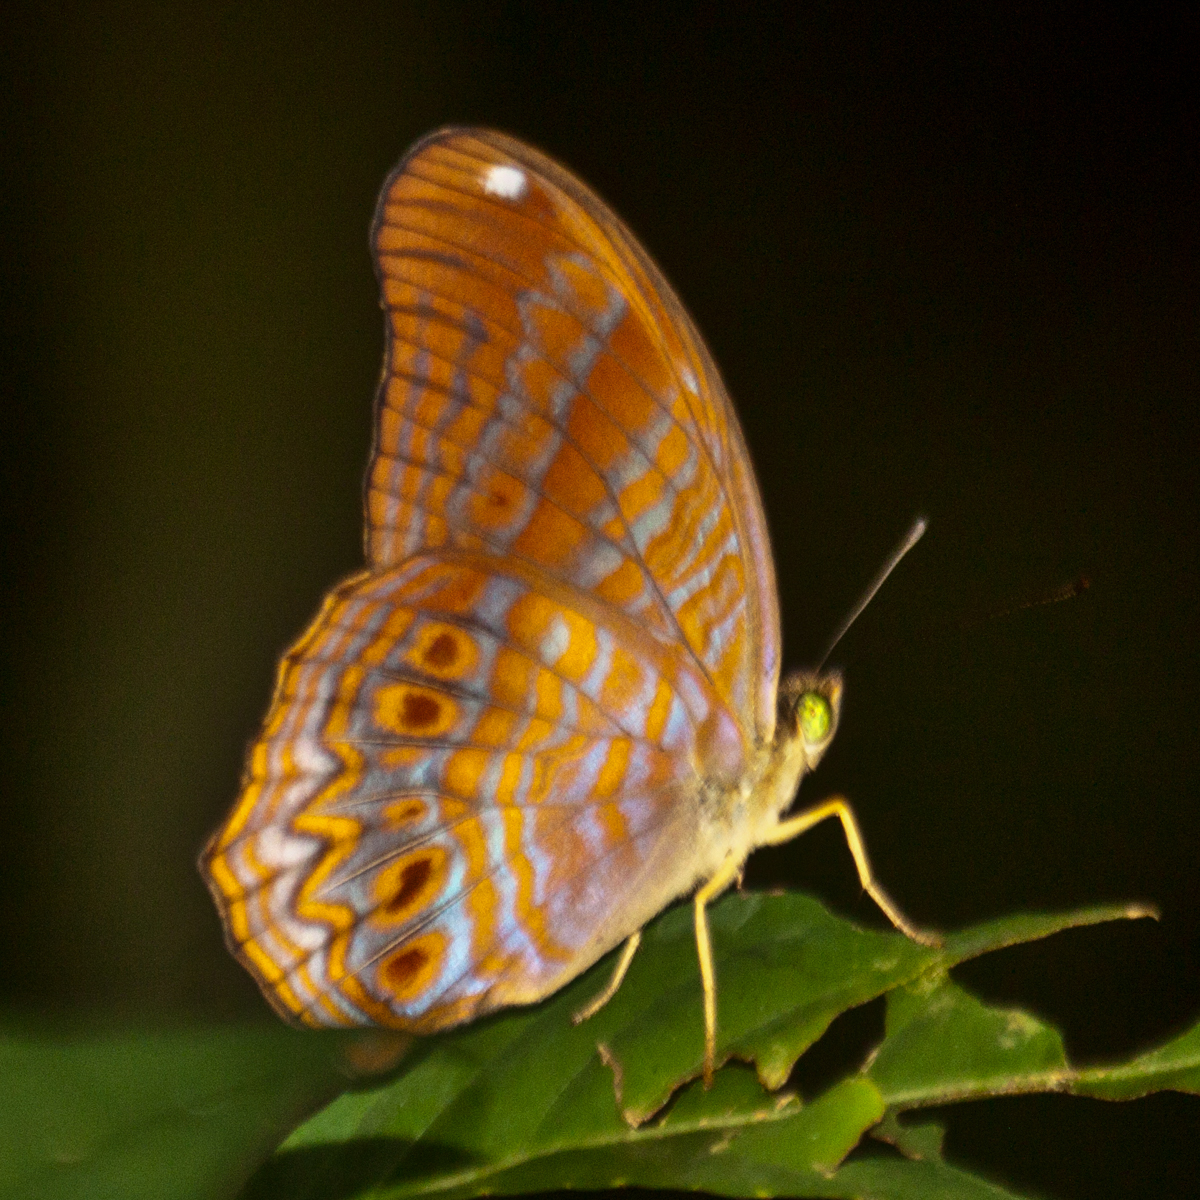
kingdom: Animalia
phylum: Arthropoda
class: Insecta
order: Lepidoptera
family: Nymphalidae
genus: Terinos
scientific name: Terinos terpander
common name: Royal assyrian
